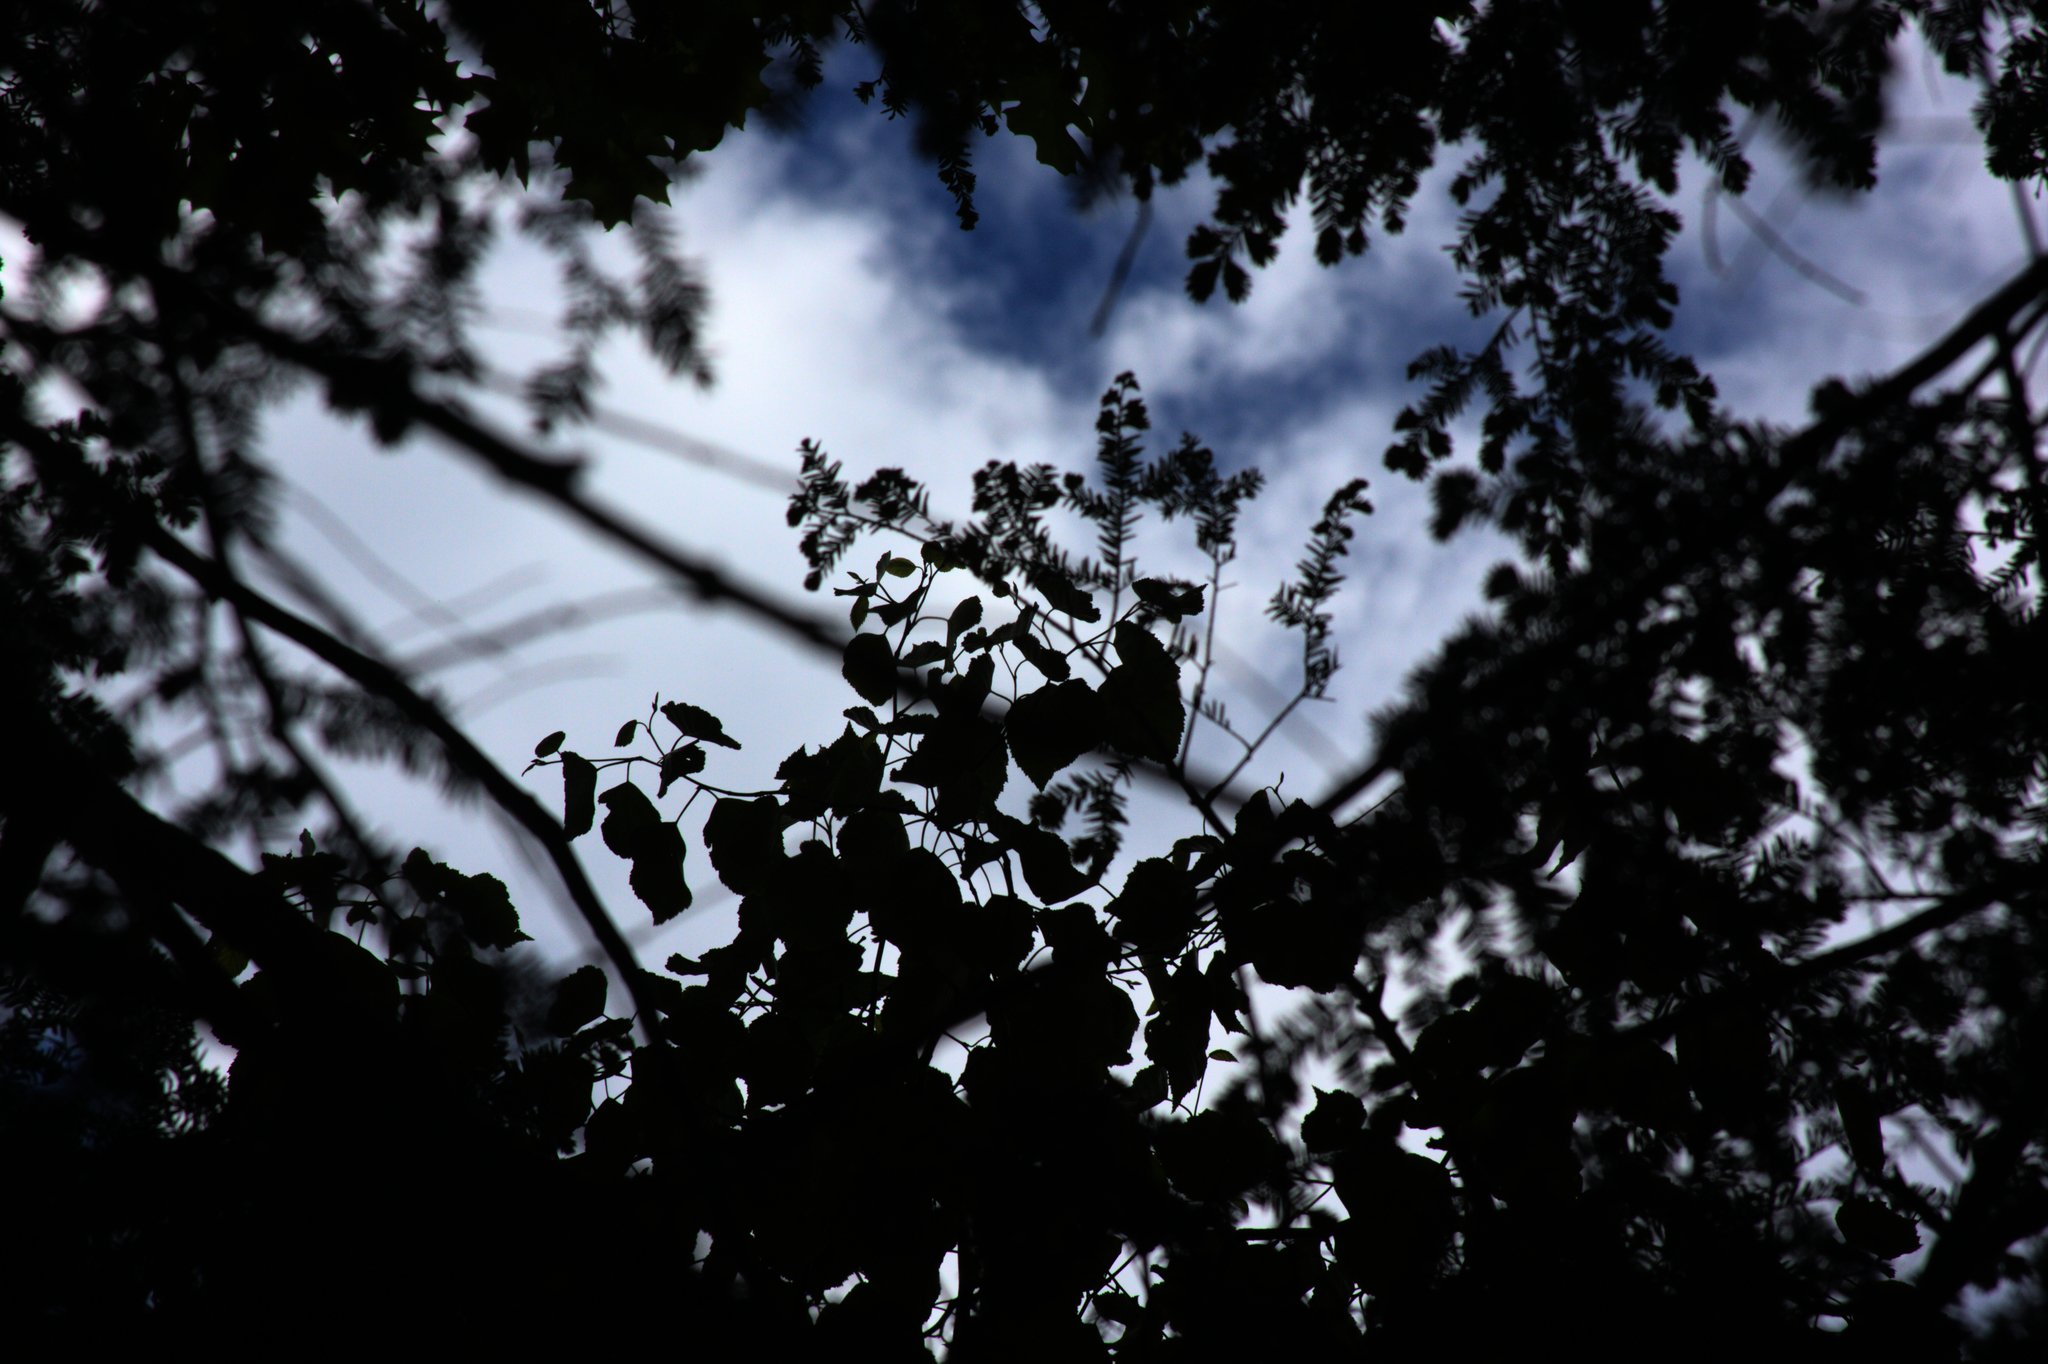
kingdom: Plantae
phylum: Tracheophyta
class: Pinopsida
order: Pinales
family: Pinaceae
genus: Tsuga
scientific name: Tsuga canadensis
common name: Eastern hemlock
